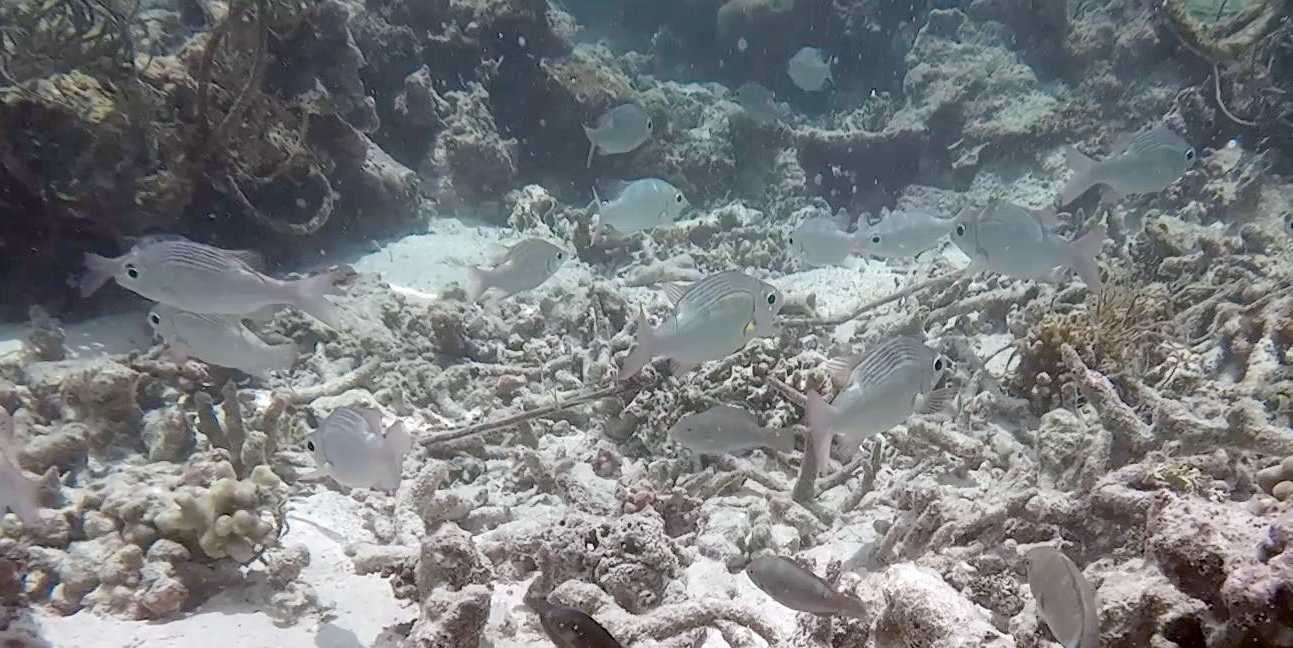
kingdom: Animalia
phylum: Chordata
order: Perciformes
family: Lethrinidae
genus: Gnathodentex
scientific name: Gnathodentex aureolineatus
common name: Gold-lined sea bream
